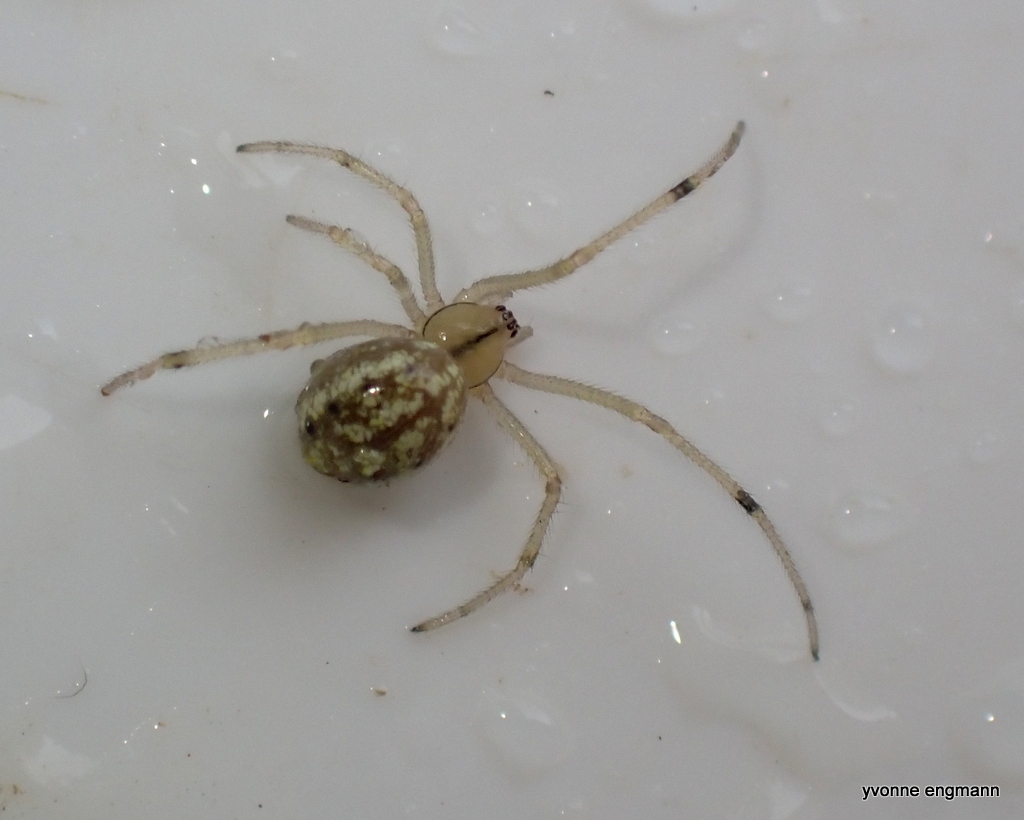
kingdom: Animalia
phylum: Arthropoda
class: Arachnida
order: Araneae
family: Theridiidae
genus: Enoplognatha
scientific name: Enoplognatha ovata
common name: Common candy-striped spider
